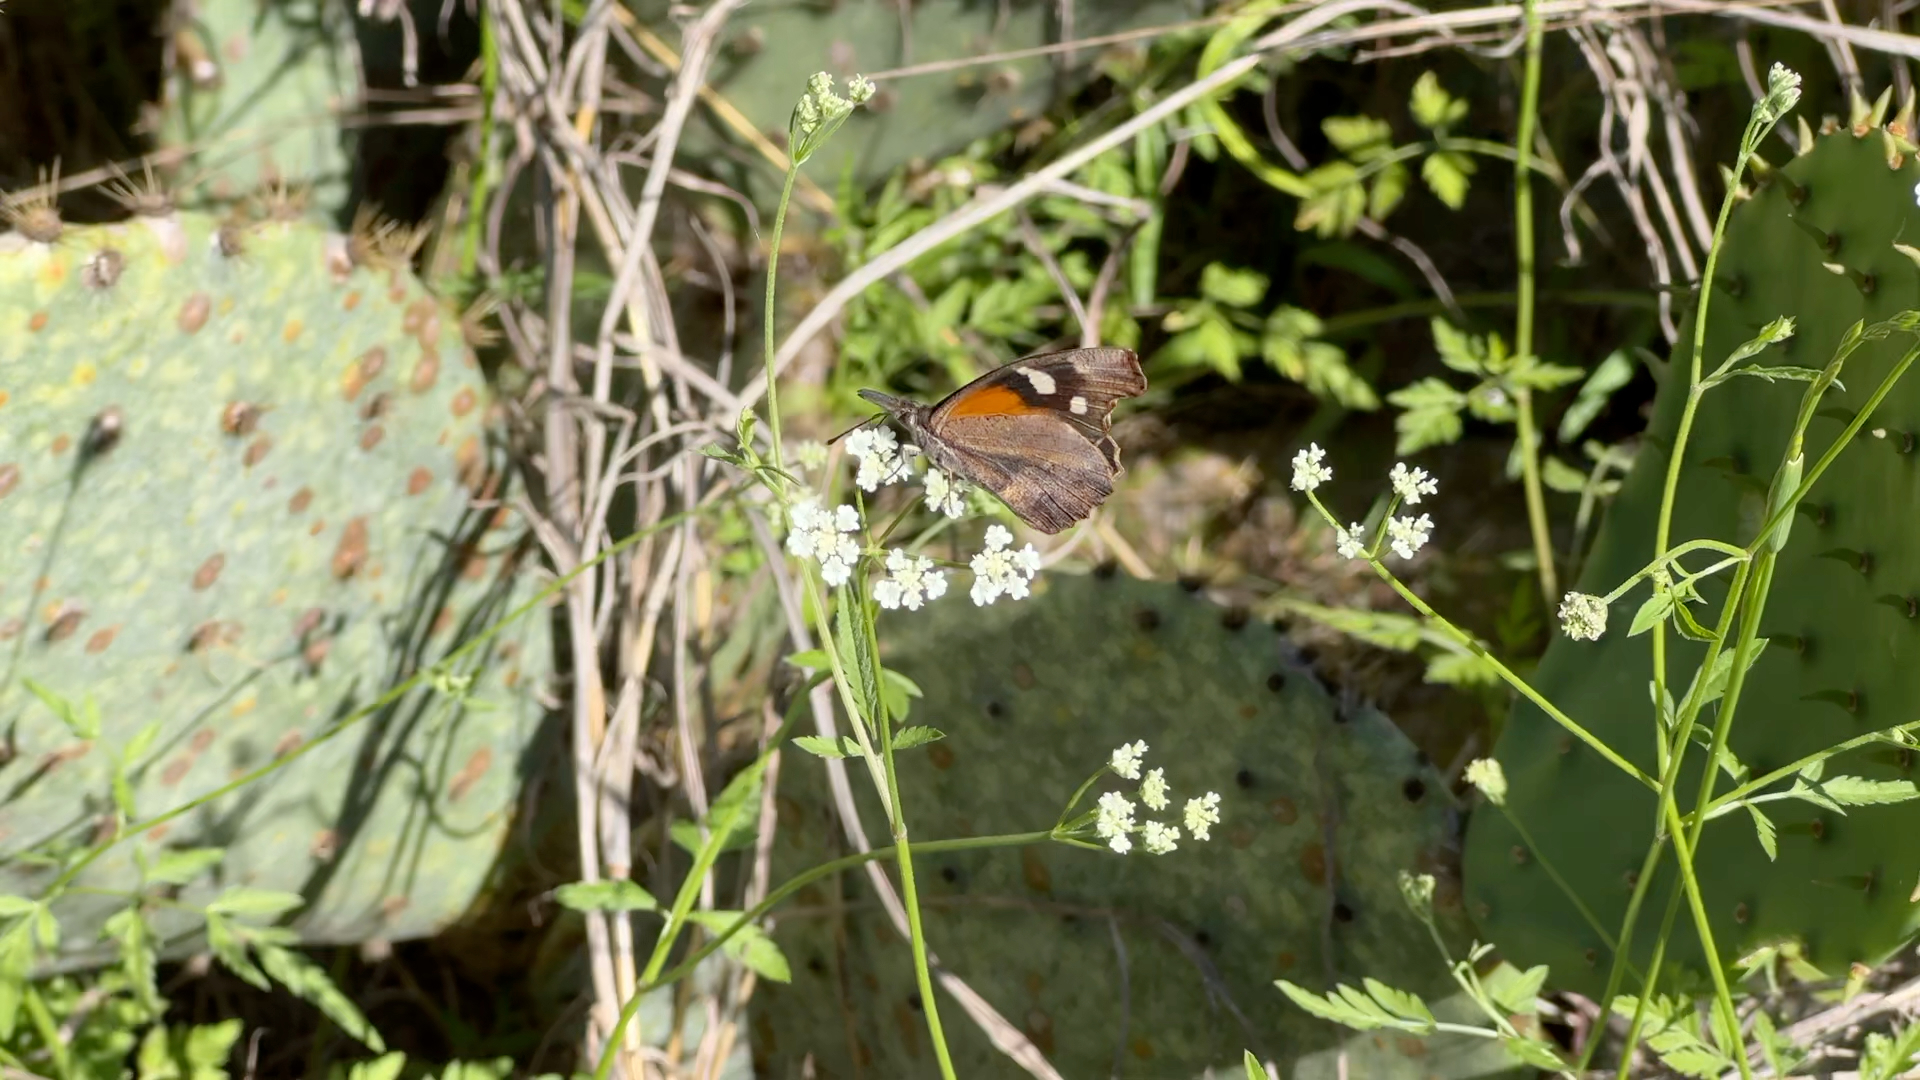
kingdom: Animalia
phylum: Arthropoda
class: Insecta
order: Lepidoptera
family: Nymphalidae
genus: Libytheana
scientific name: Libytheana carinenta
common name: American snout
